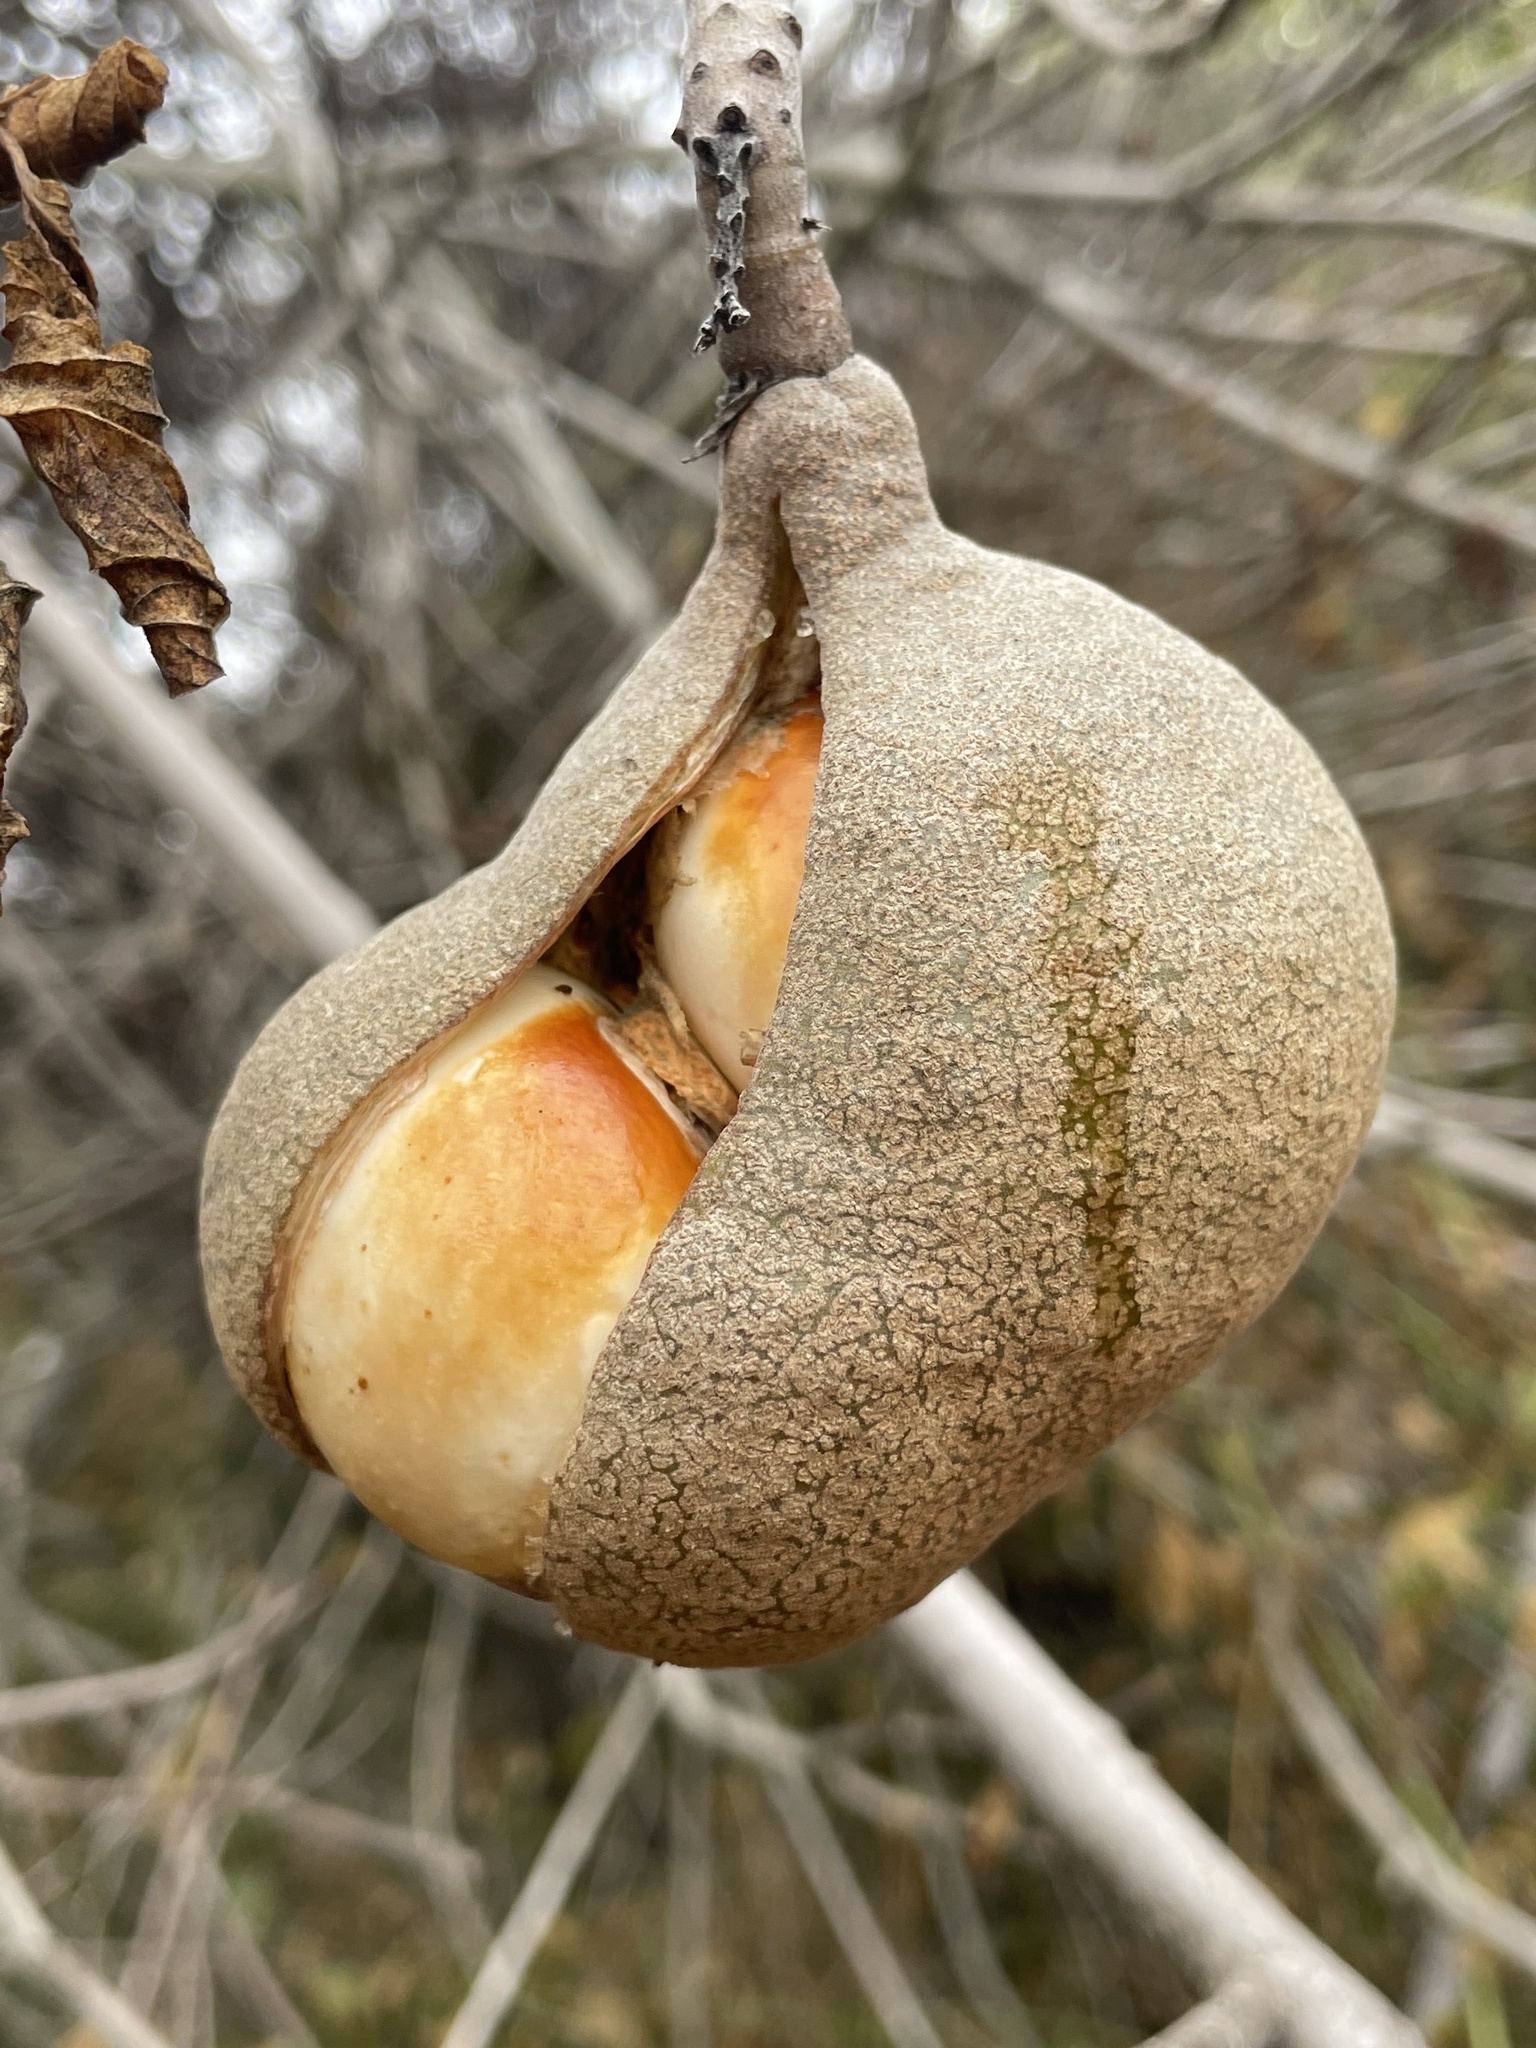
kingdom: Plantae
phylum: Tracheophyta
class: Magnoliopsida
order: Sapindales
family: Sapindaceae
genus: Aesculus
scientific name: Aesculus californica
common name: California buckeye
